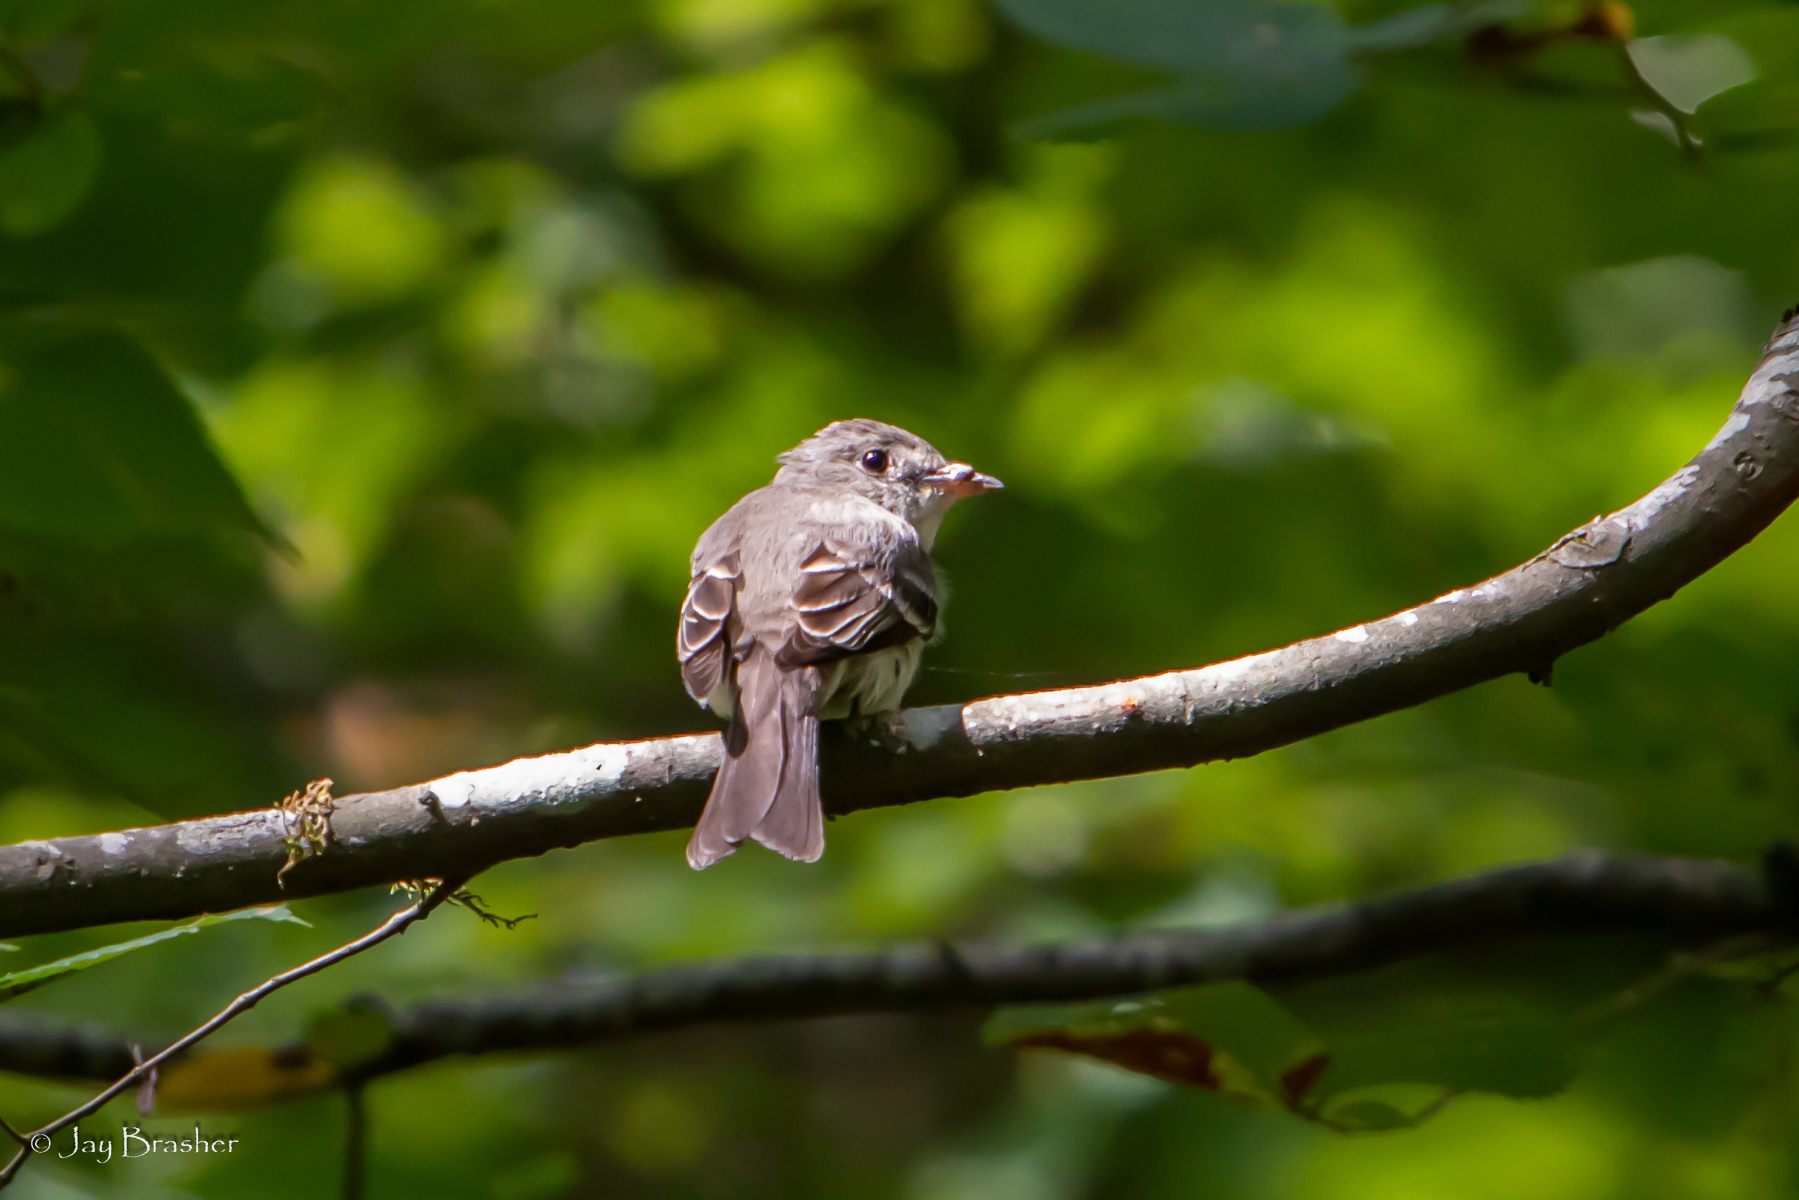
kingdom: Animalia
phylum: Chordata
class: Aves
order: Passeriformes
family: Tyrannidae
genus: Contopus
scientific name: Contopus virens
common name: Eastern wood-pewee
